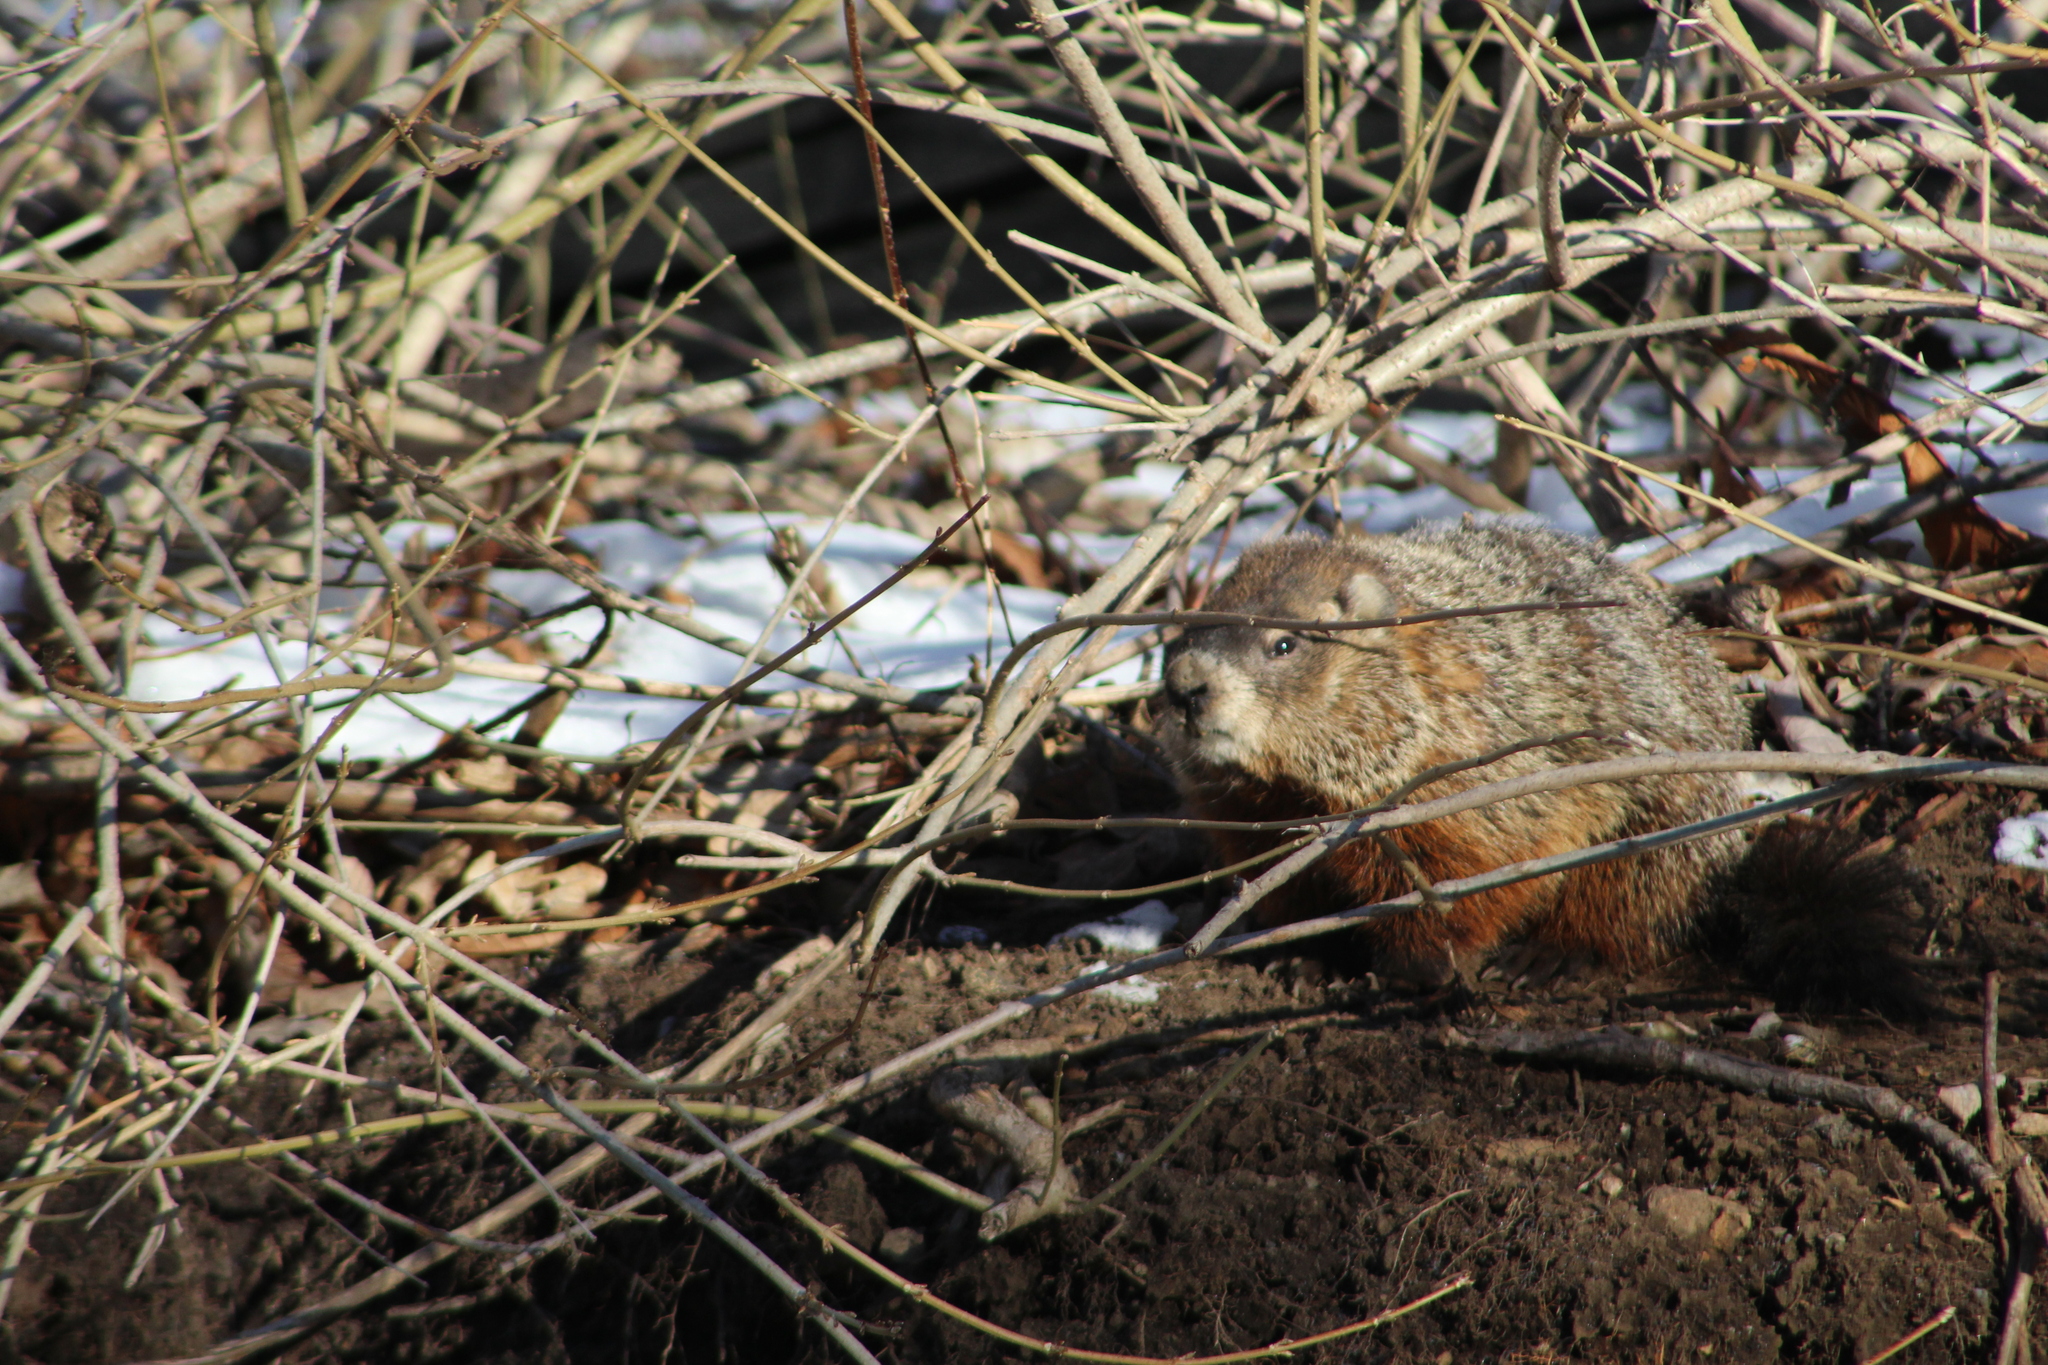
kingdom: Animalia
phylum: Chordata
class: Mammalia
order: Rodentia
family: Sciuridae
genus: Marmota
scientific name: Marmota monax
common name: Groundhog
